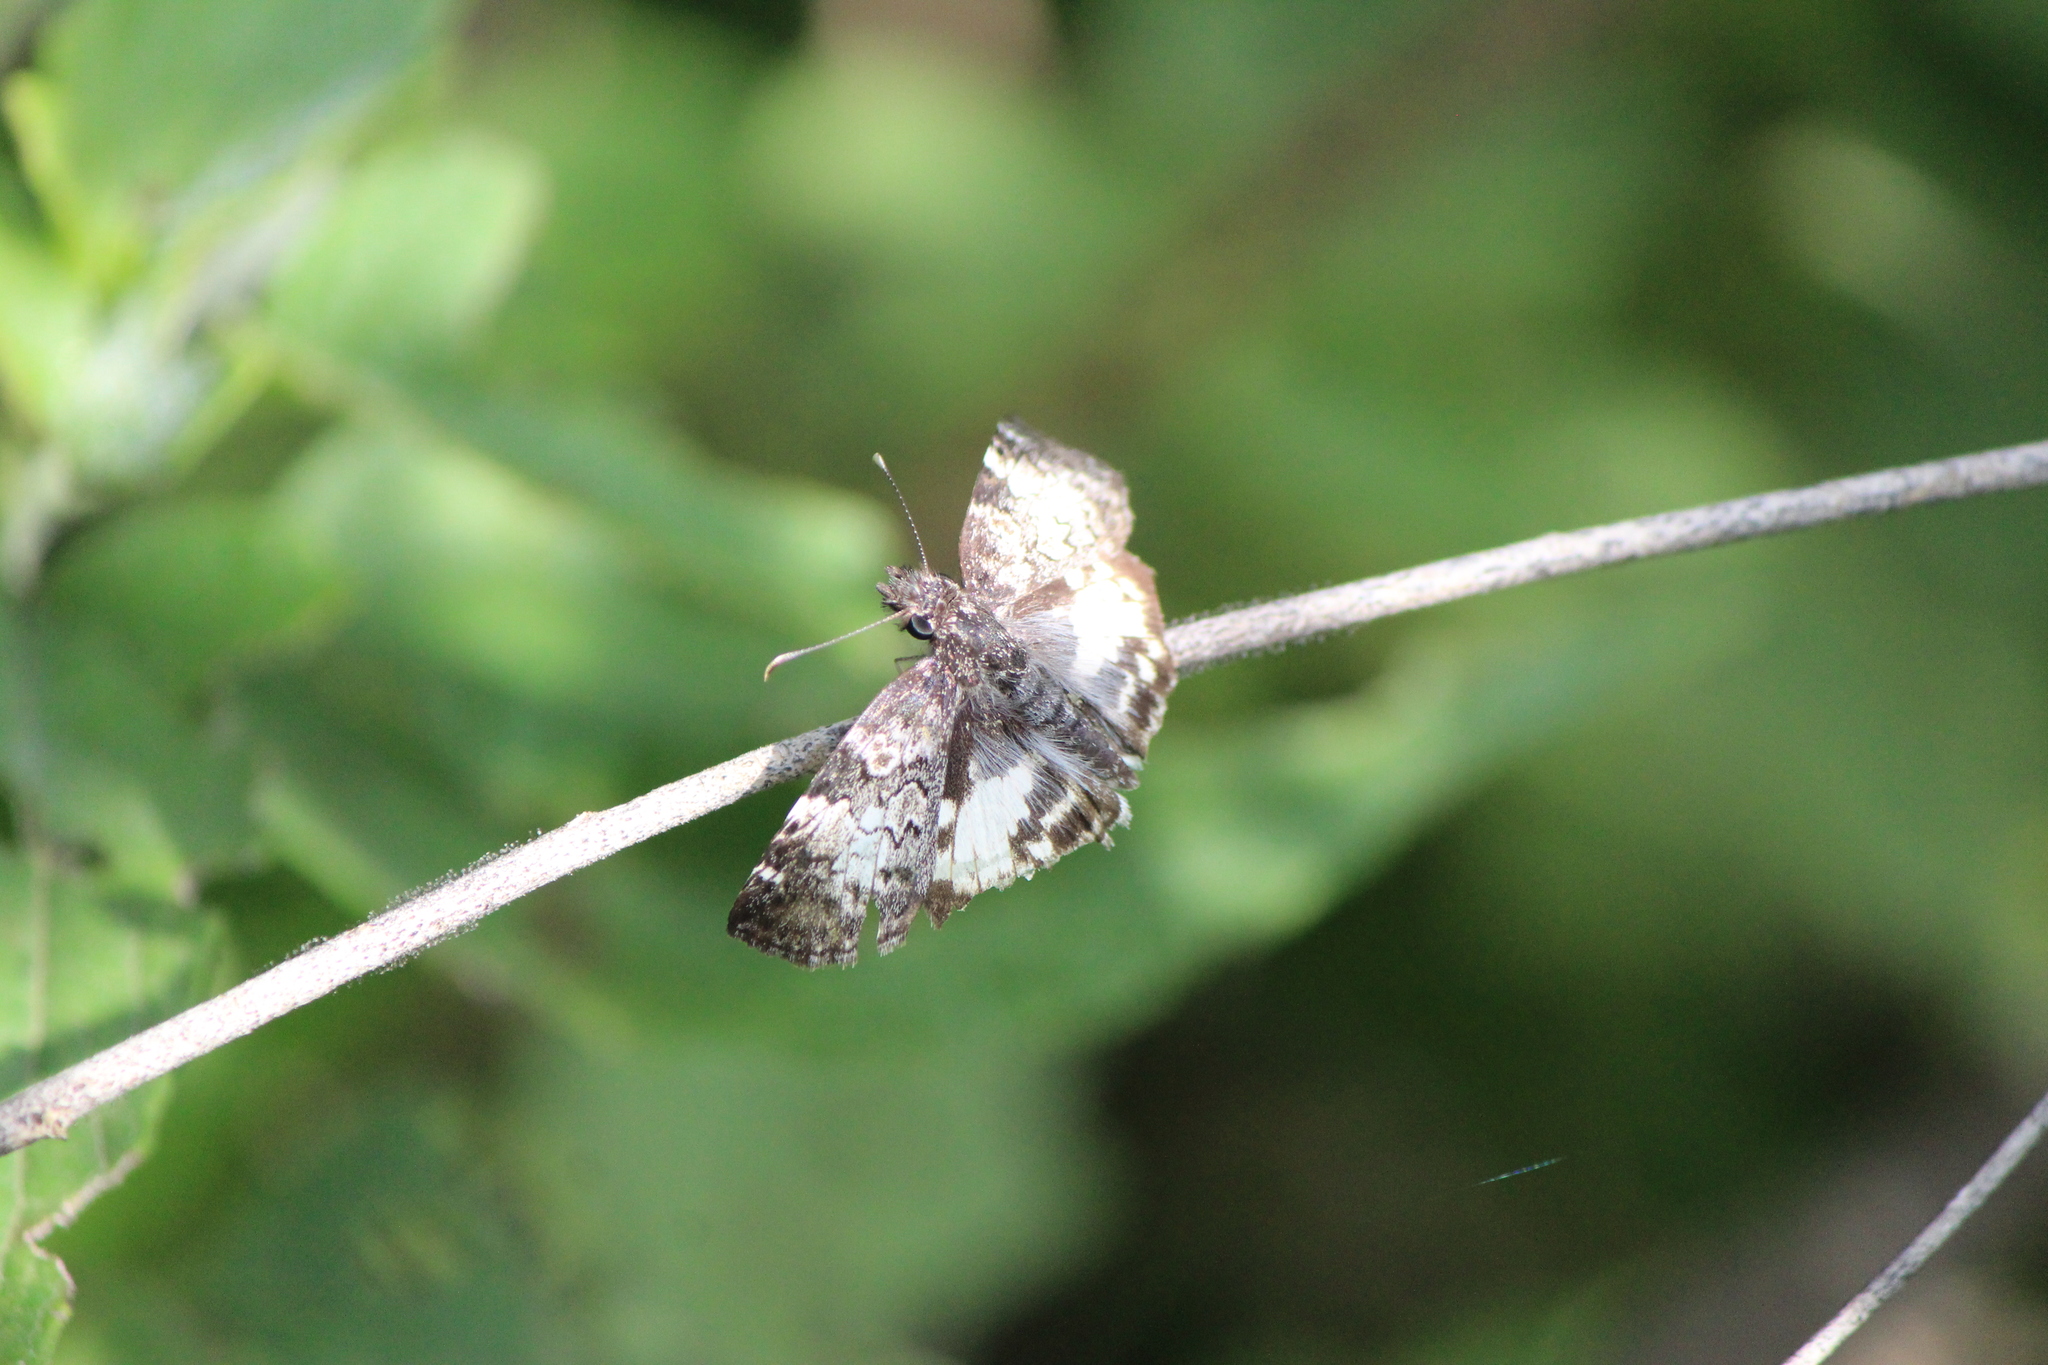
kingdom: Animalia
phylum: Arthropoda
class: Insecta
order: Lepidoptera
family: Hesperiidae
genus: Chiothion
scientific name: Chiothion georgina
